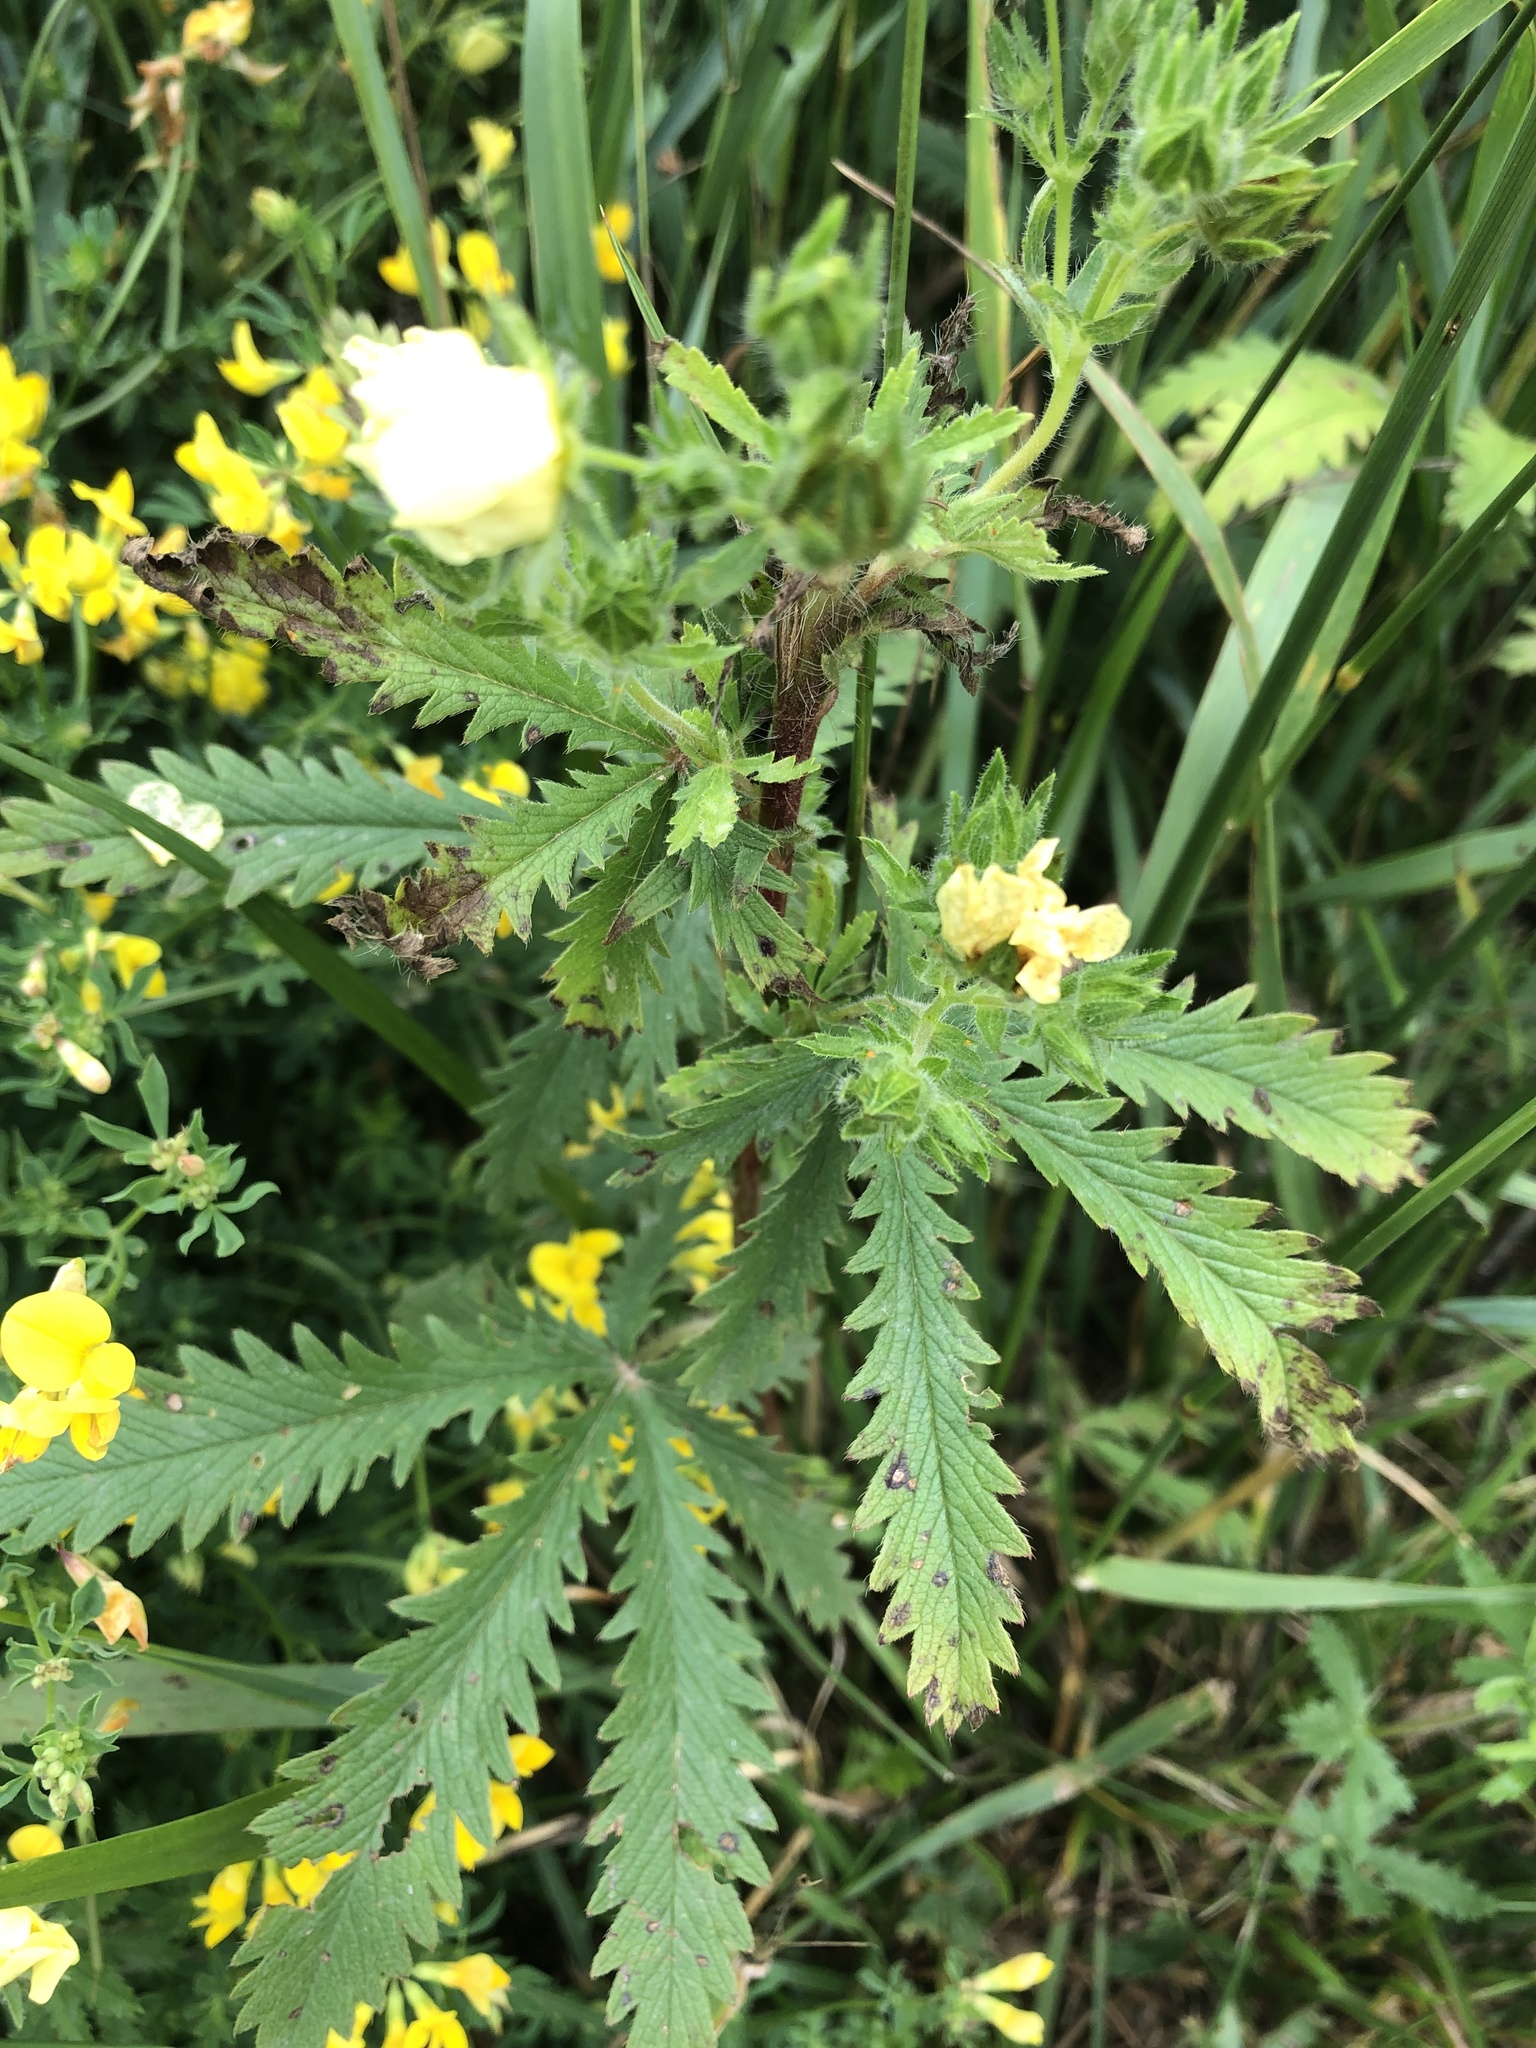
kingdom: Plantae
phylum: Tracheophyta
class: Magnoliopsida
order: Rosales
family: Rosaceae
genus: Potentilla
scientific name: Potentilla recta
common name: Sulphur cinquefoil
